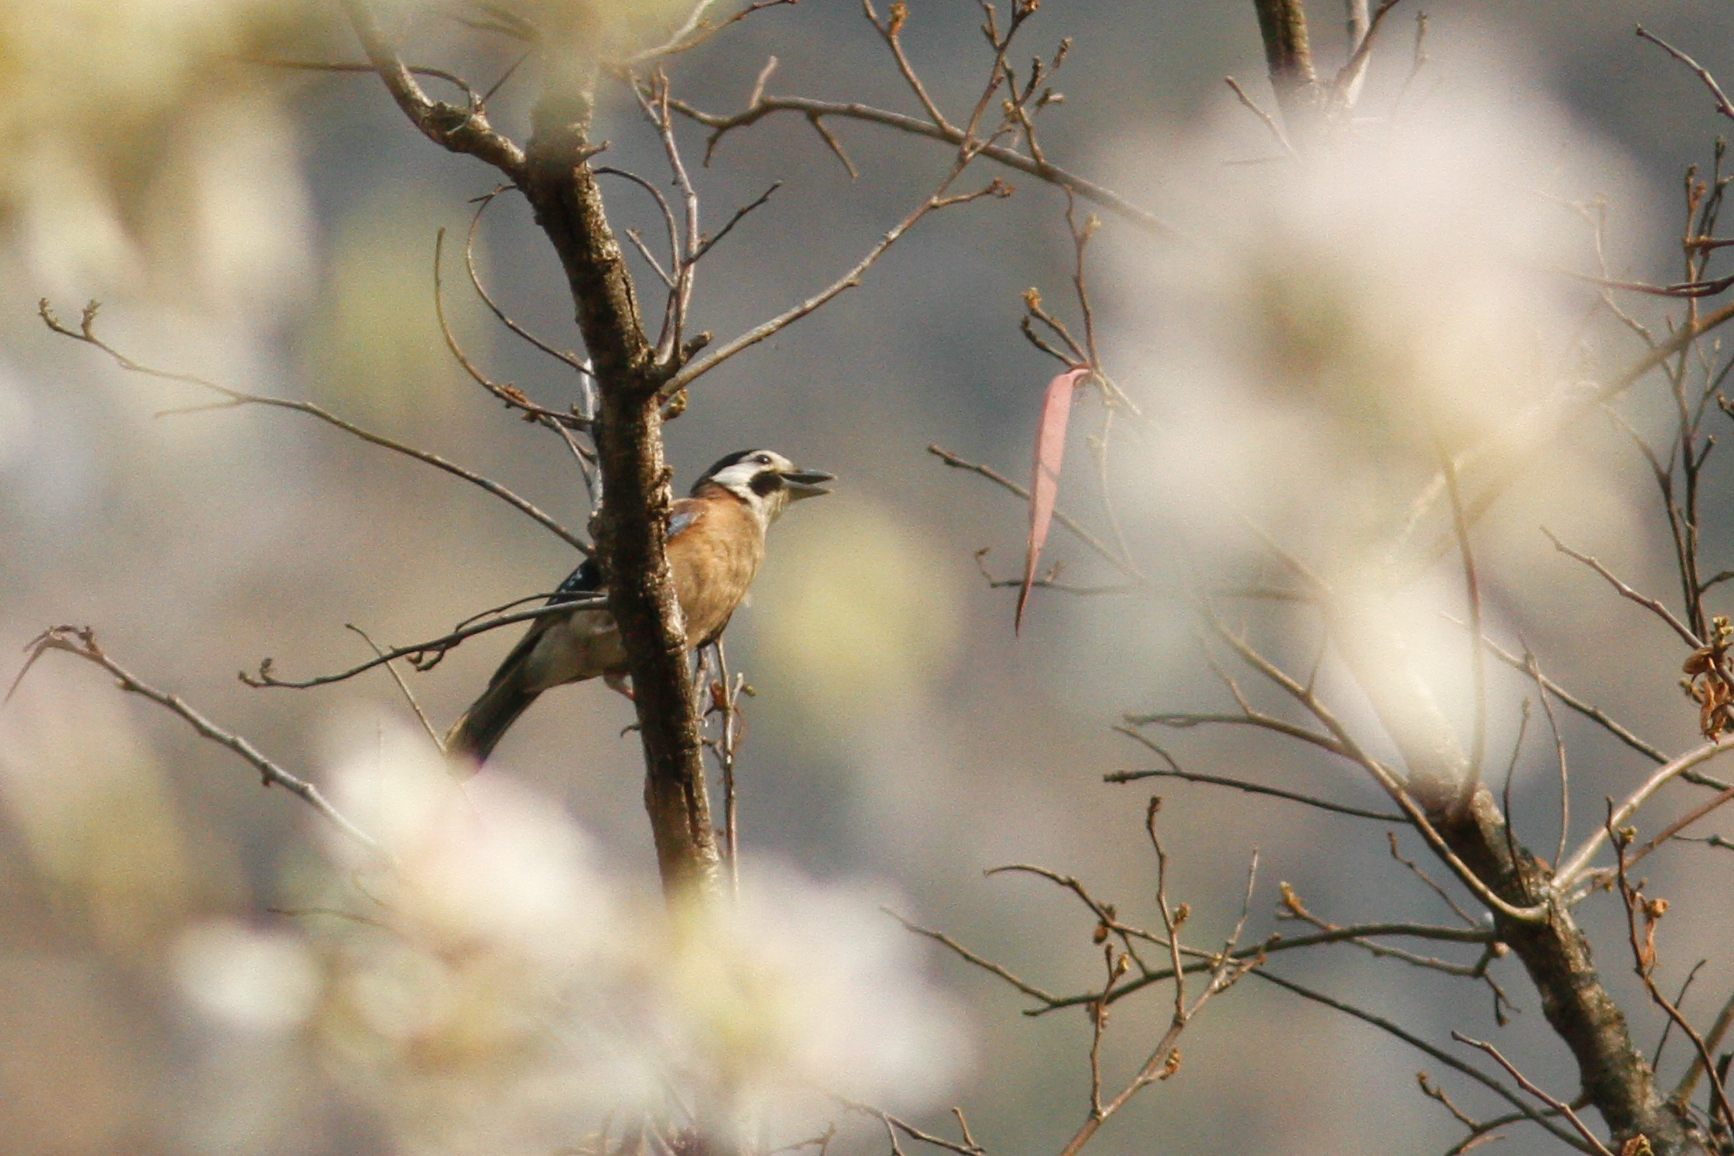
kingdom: Animalia
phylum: Chordata
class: Aves
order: Passeriformes
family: Corvidae
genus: Garrulus
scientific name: Garrulus glandarius
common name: Eurasian jay
